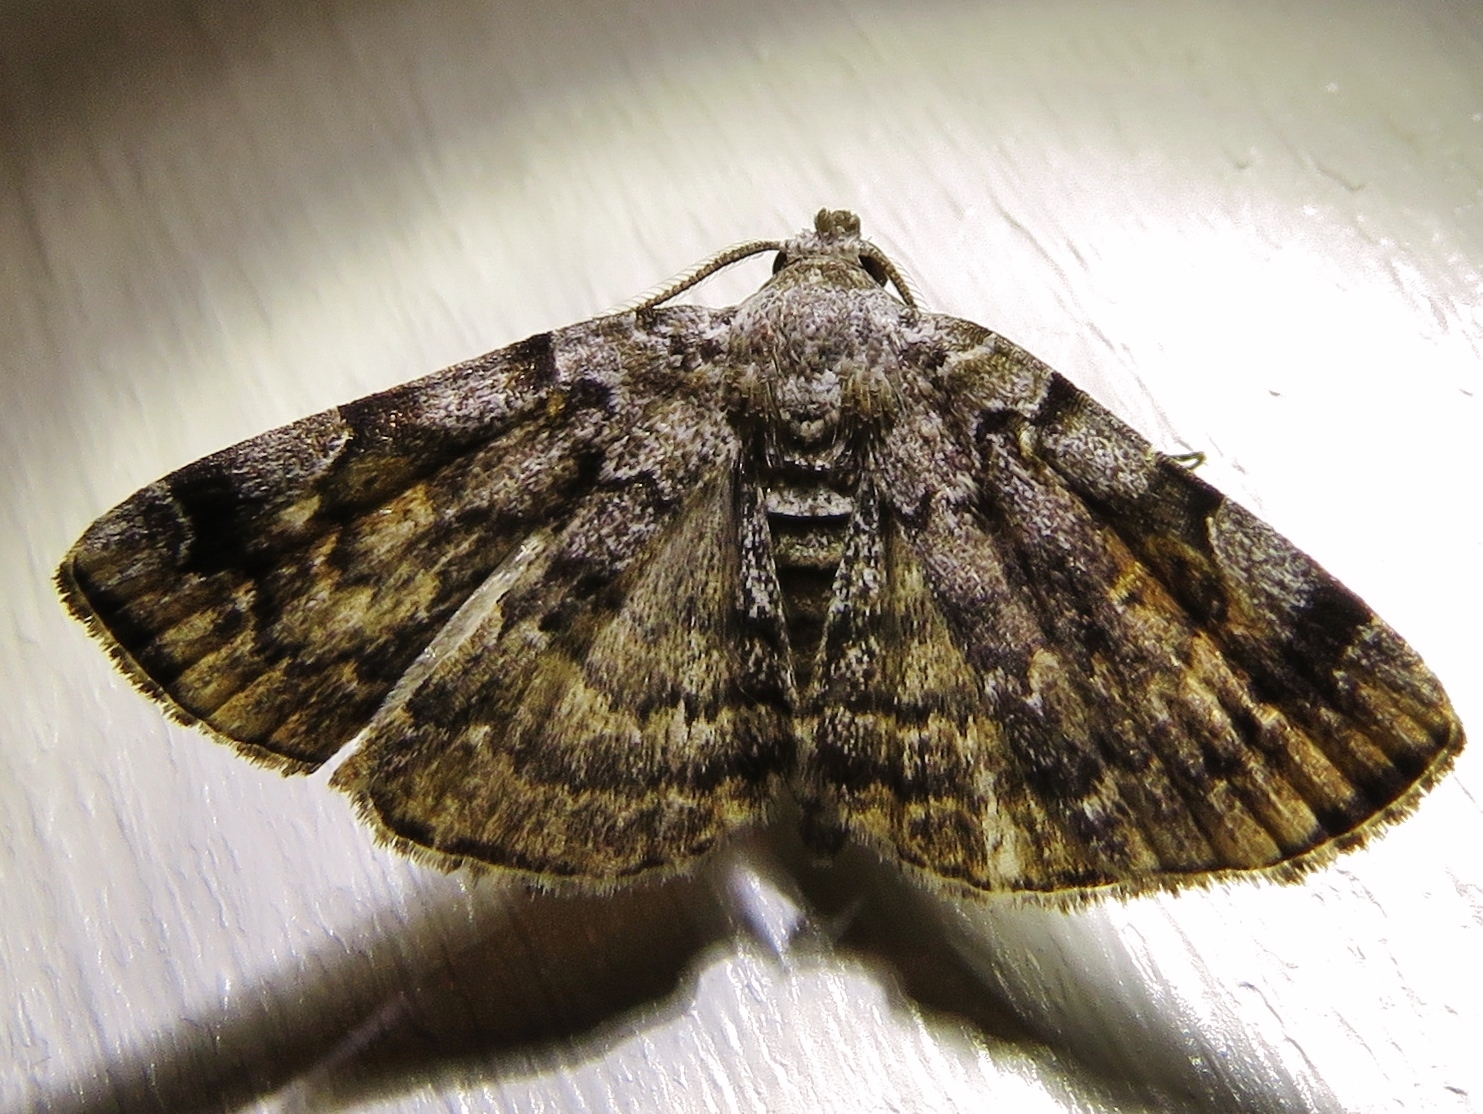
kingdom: Animalia
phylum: Arthropoda
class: Insecta
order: Lepidoptera
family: Erebidae
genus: Idia
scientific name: Idia americalis
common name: American idia moth
